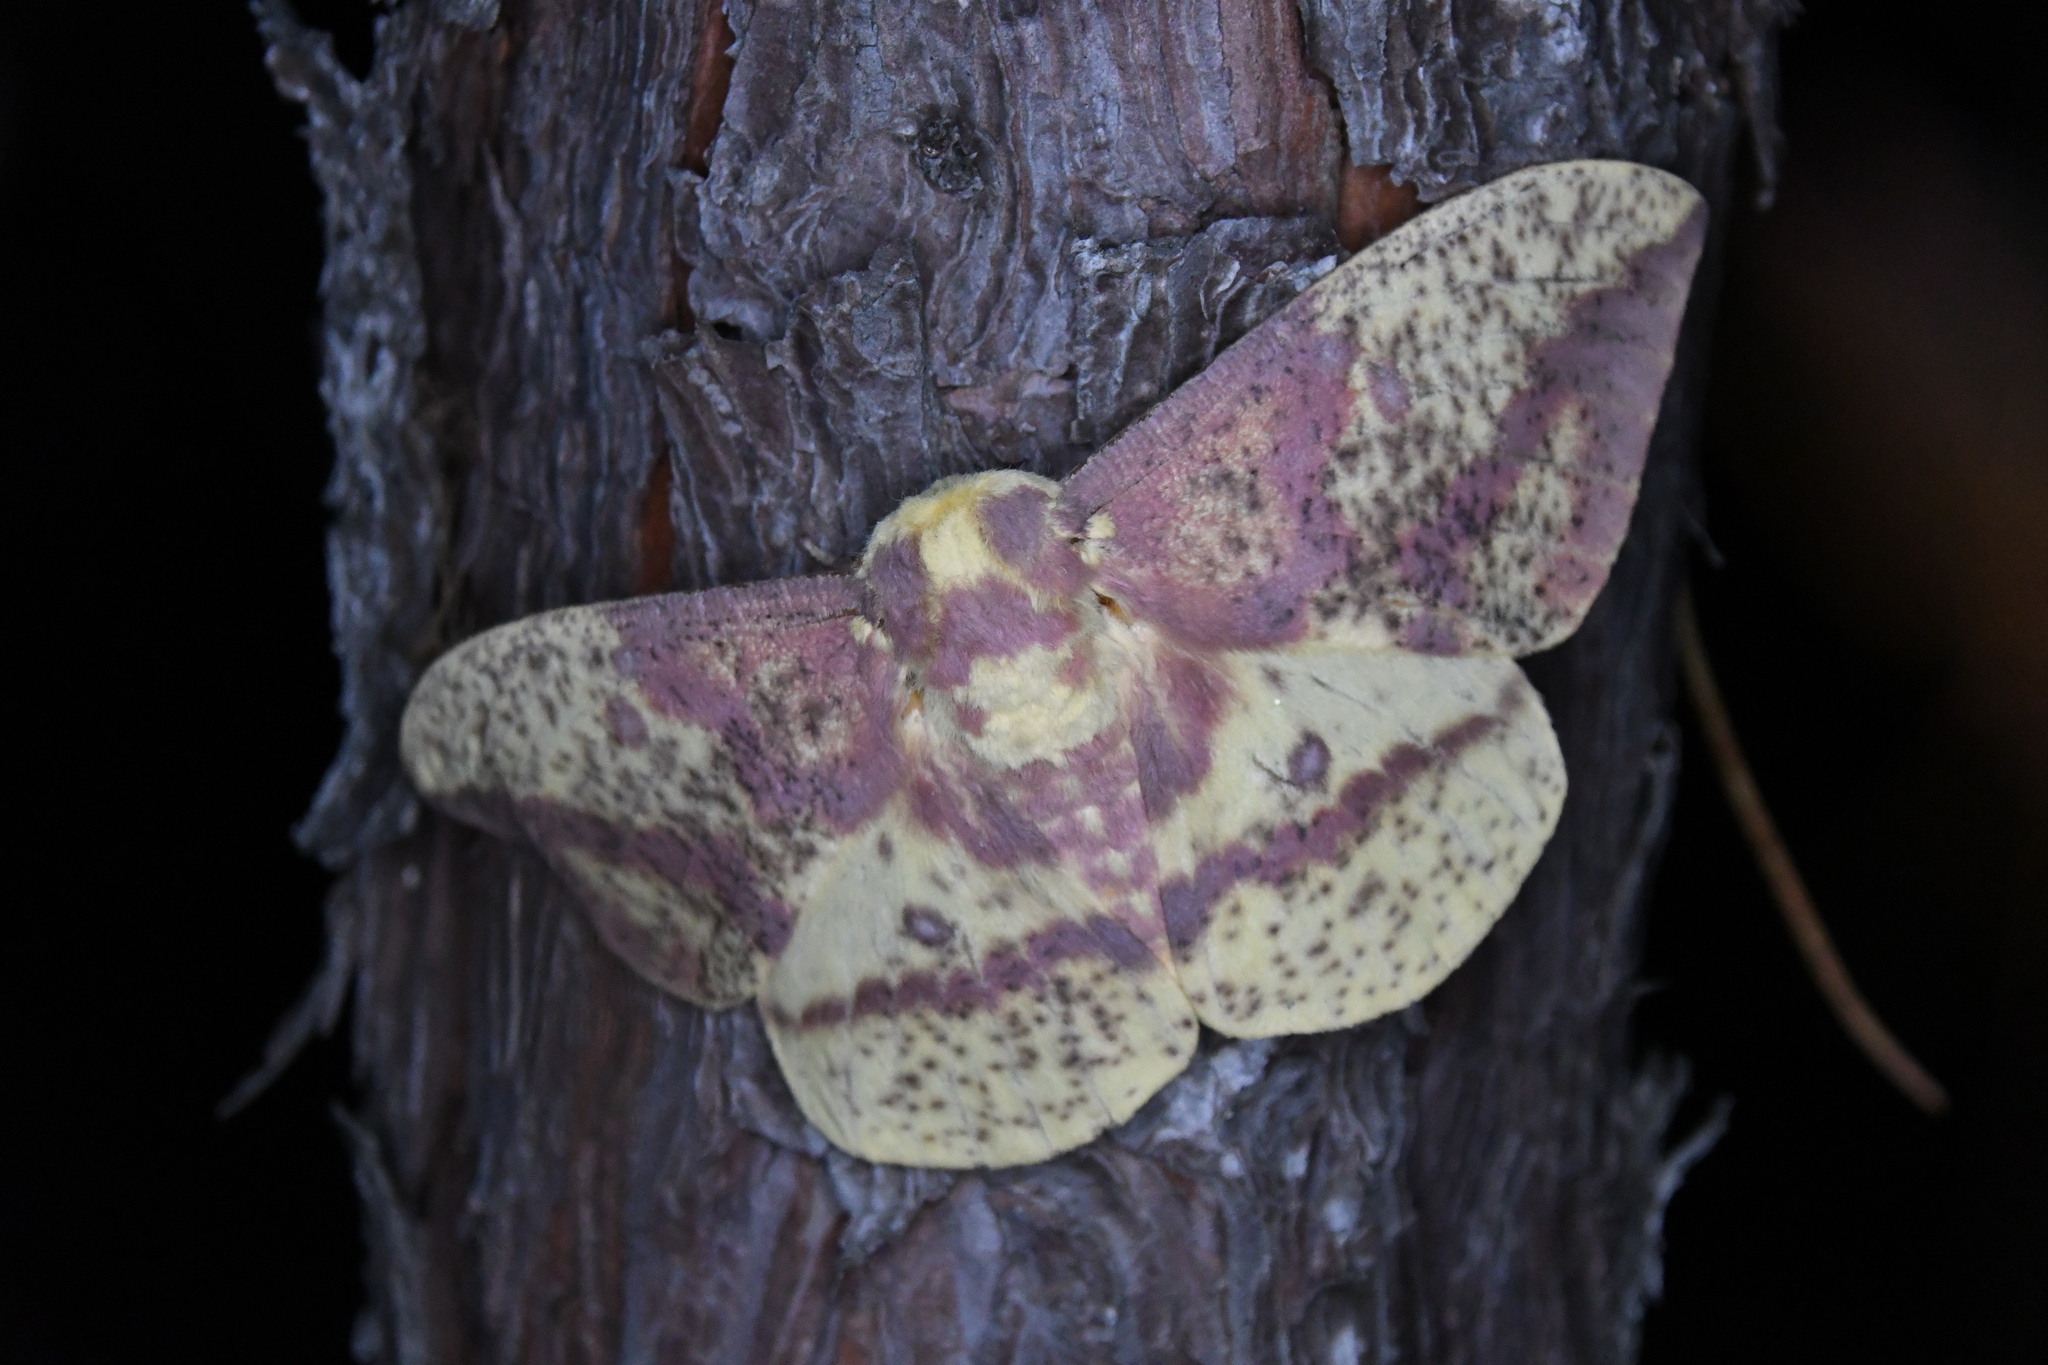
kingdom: Animalia
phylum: Arthropoda
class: Insecta
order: Lepidoptera
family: Saturniidae
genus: Eacles
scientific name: Eacles
